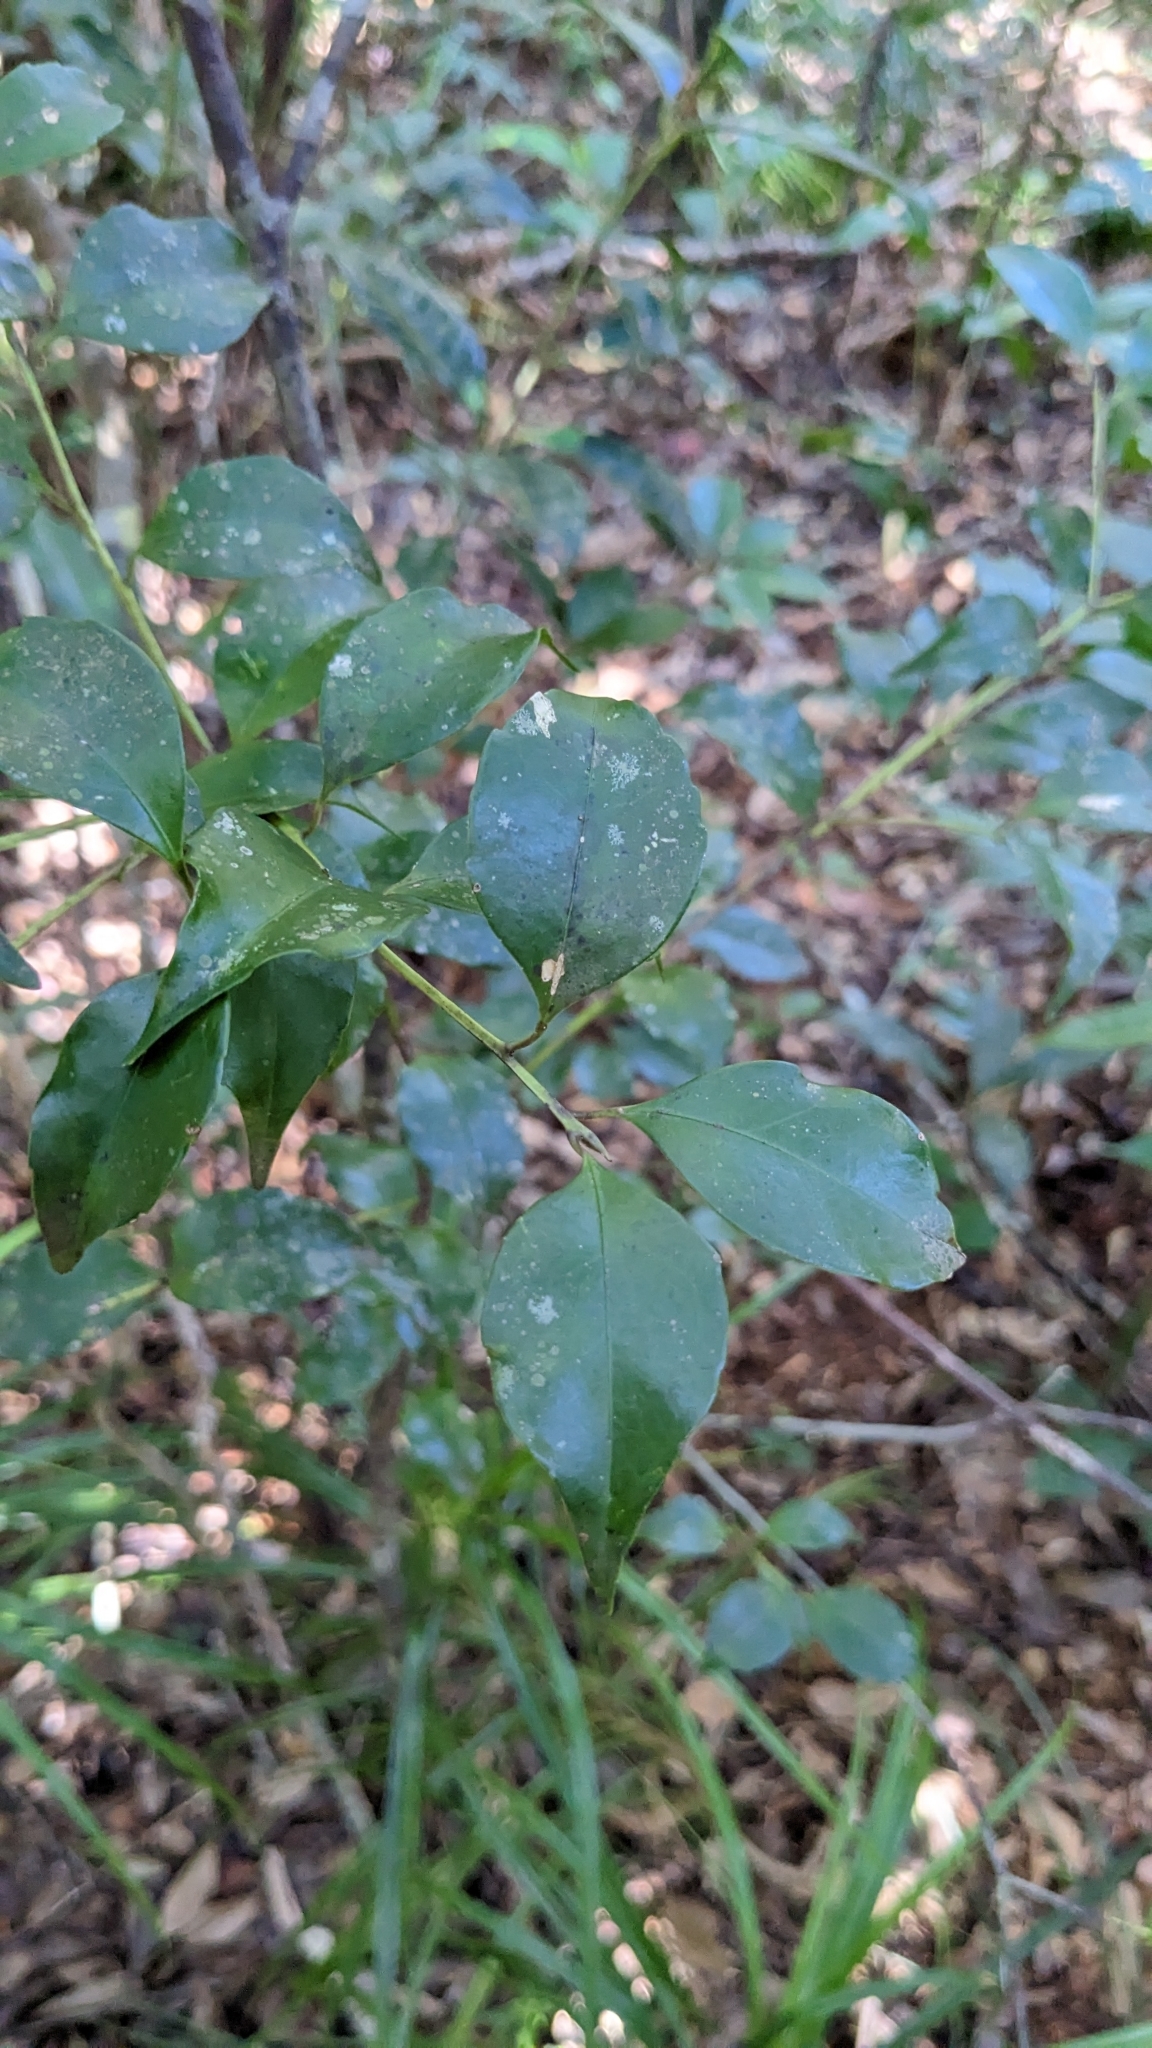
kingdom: Plantae
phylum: Tracheophyta
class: Magnoliopsida
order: Ericales
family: Symplocaceae
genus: Symplocos
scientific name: Symplocos shilanensis
